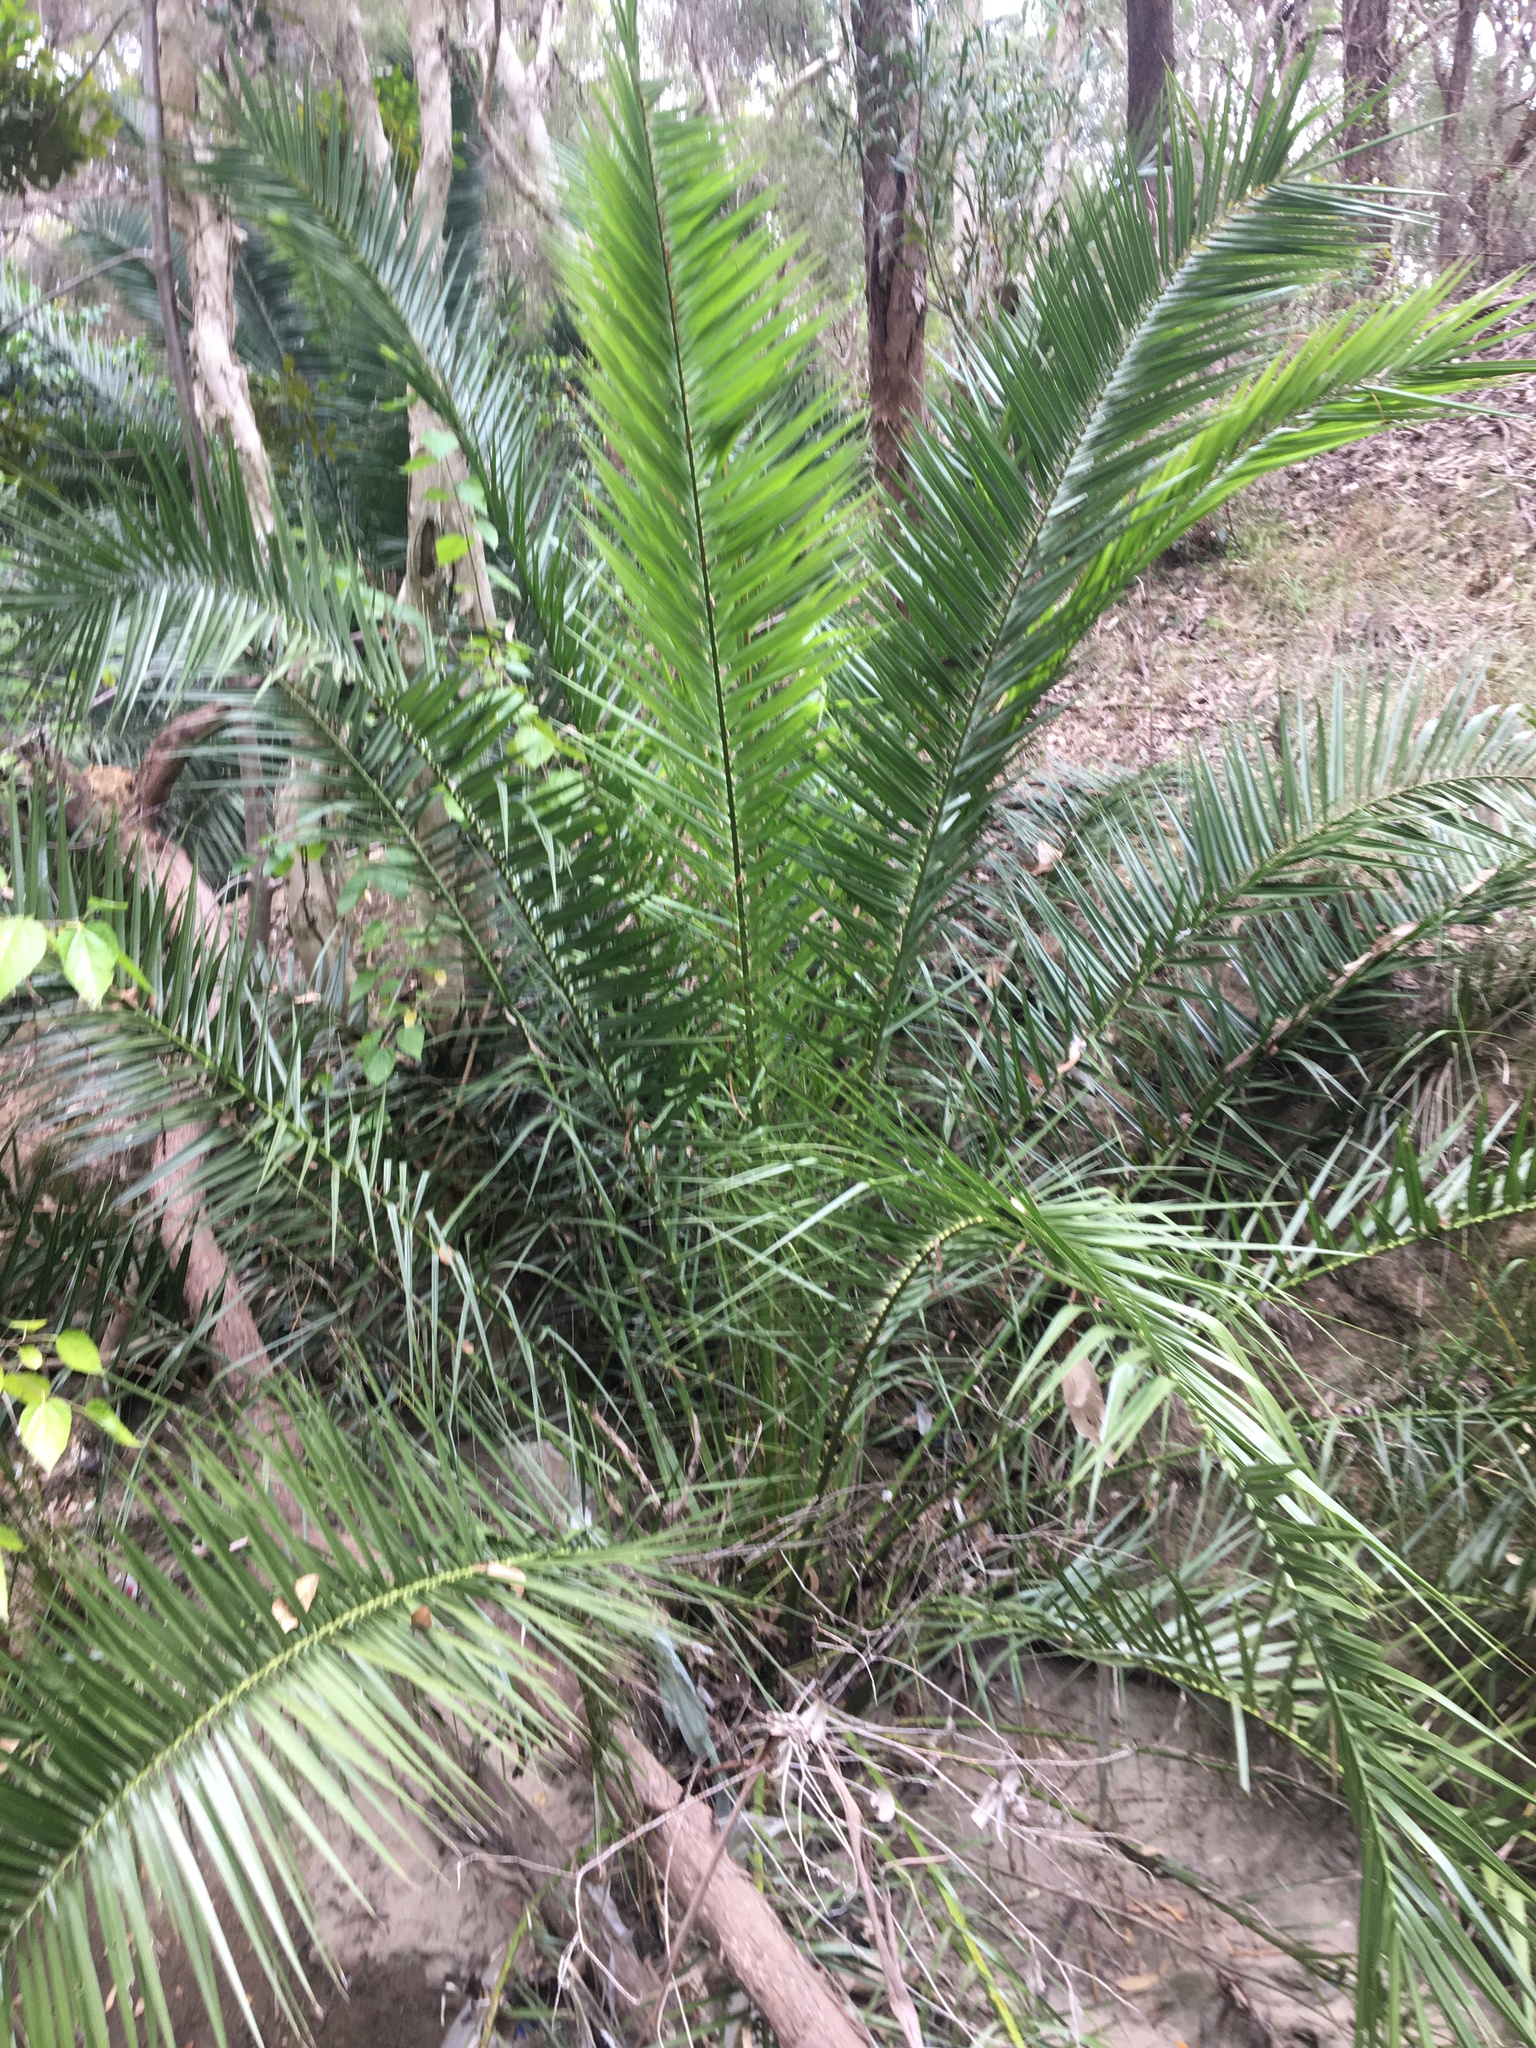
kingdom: Plantae
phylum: Tracheophyta
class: Liliopsida
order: Arecales
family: Arecaceae
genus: Phoenix
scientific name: Phoenix canariensis
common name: Canary island date palm
